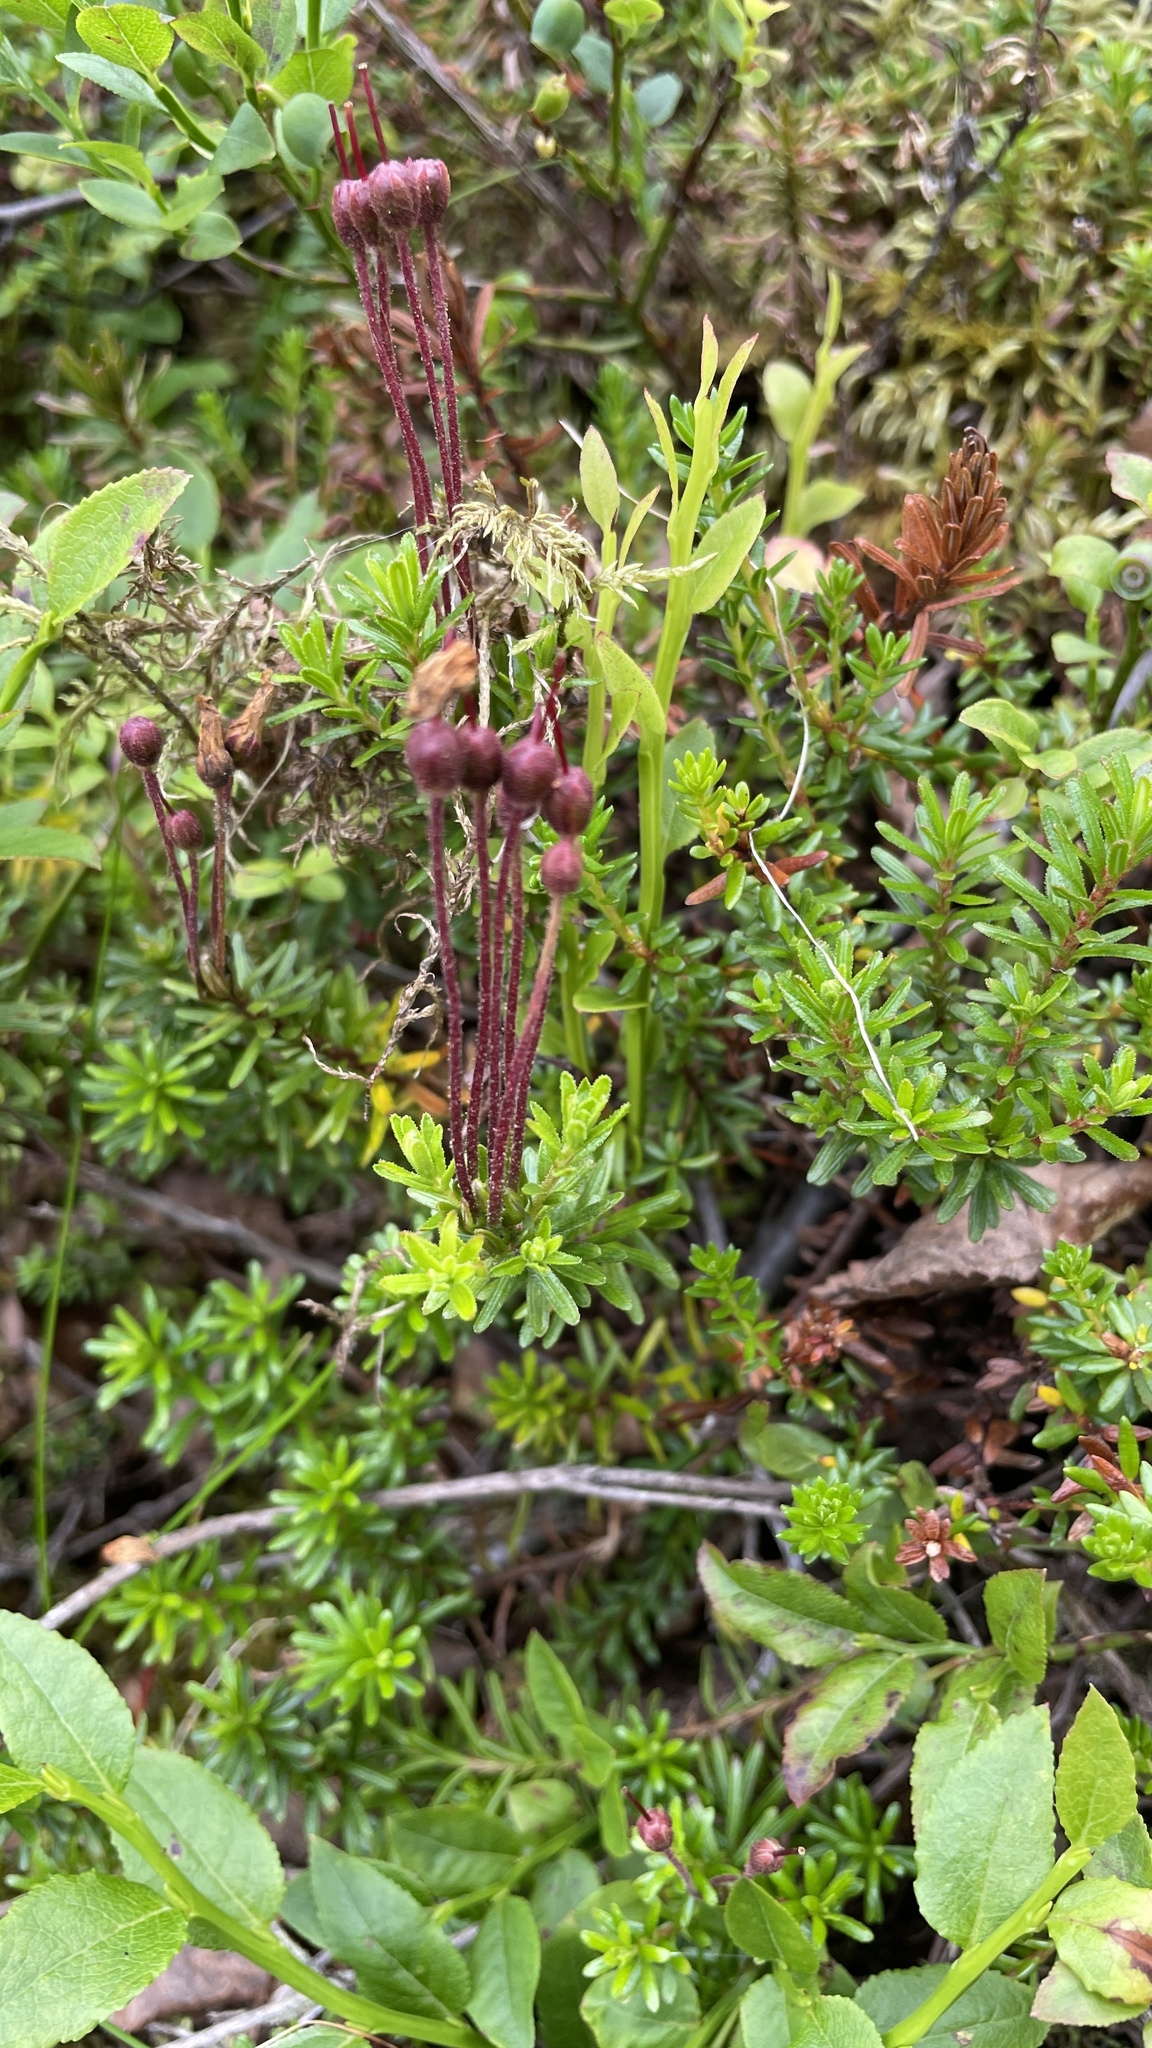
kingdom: Plantae
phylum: Tracheophyta
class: Magnoliopsida
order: Ericales
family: Ericaceae
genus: Phyllodoce
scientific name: Phyllodoce caerulea
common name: Blue heath
